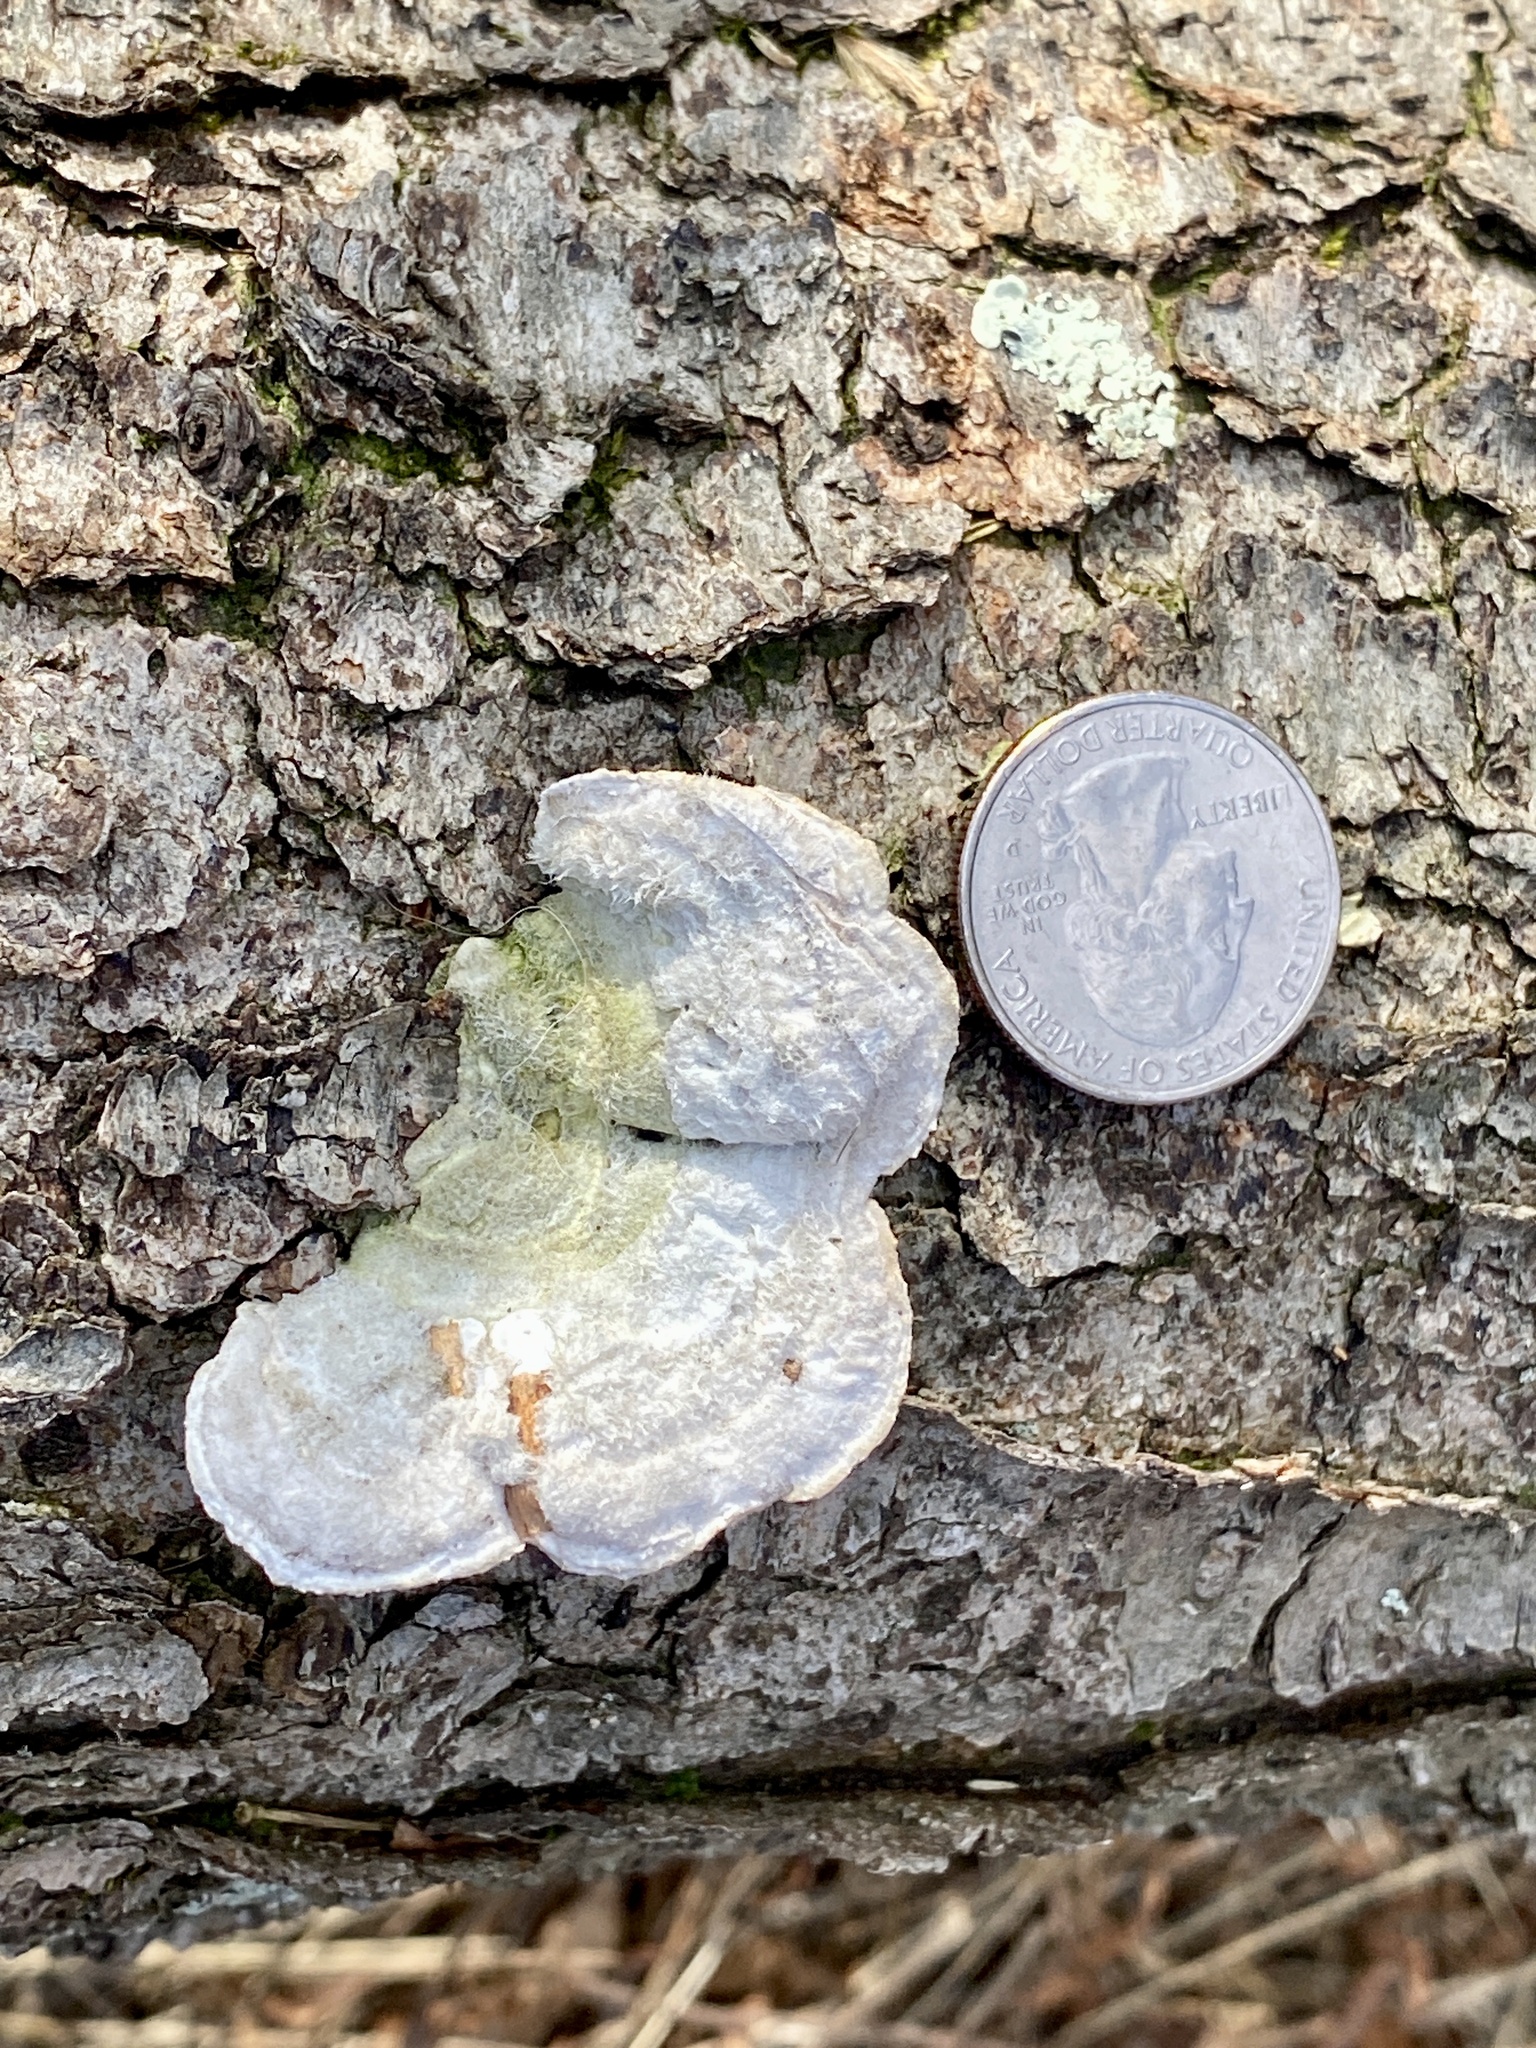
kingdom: Fungi
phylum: Basidiomycota
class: Agaricomycetes
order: Polyporales
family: Polyporaceae
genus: Trametes
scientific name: Trametes hirsuta
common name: Hairy bracket
